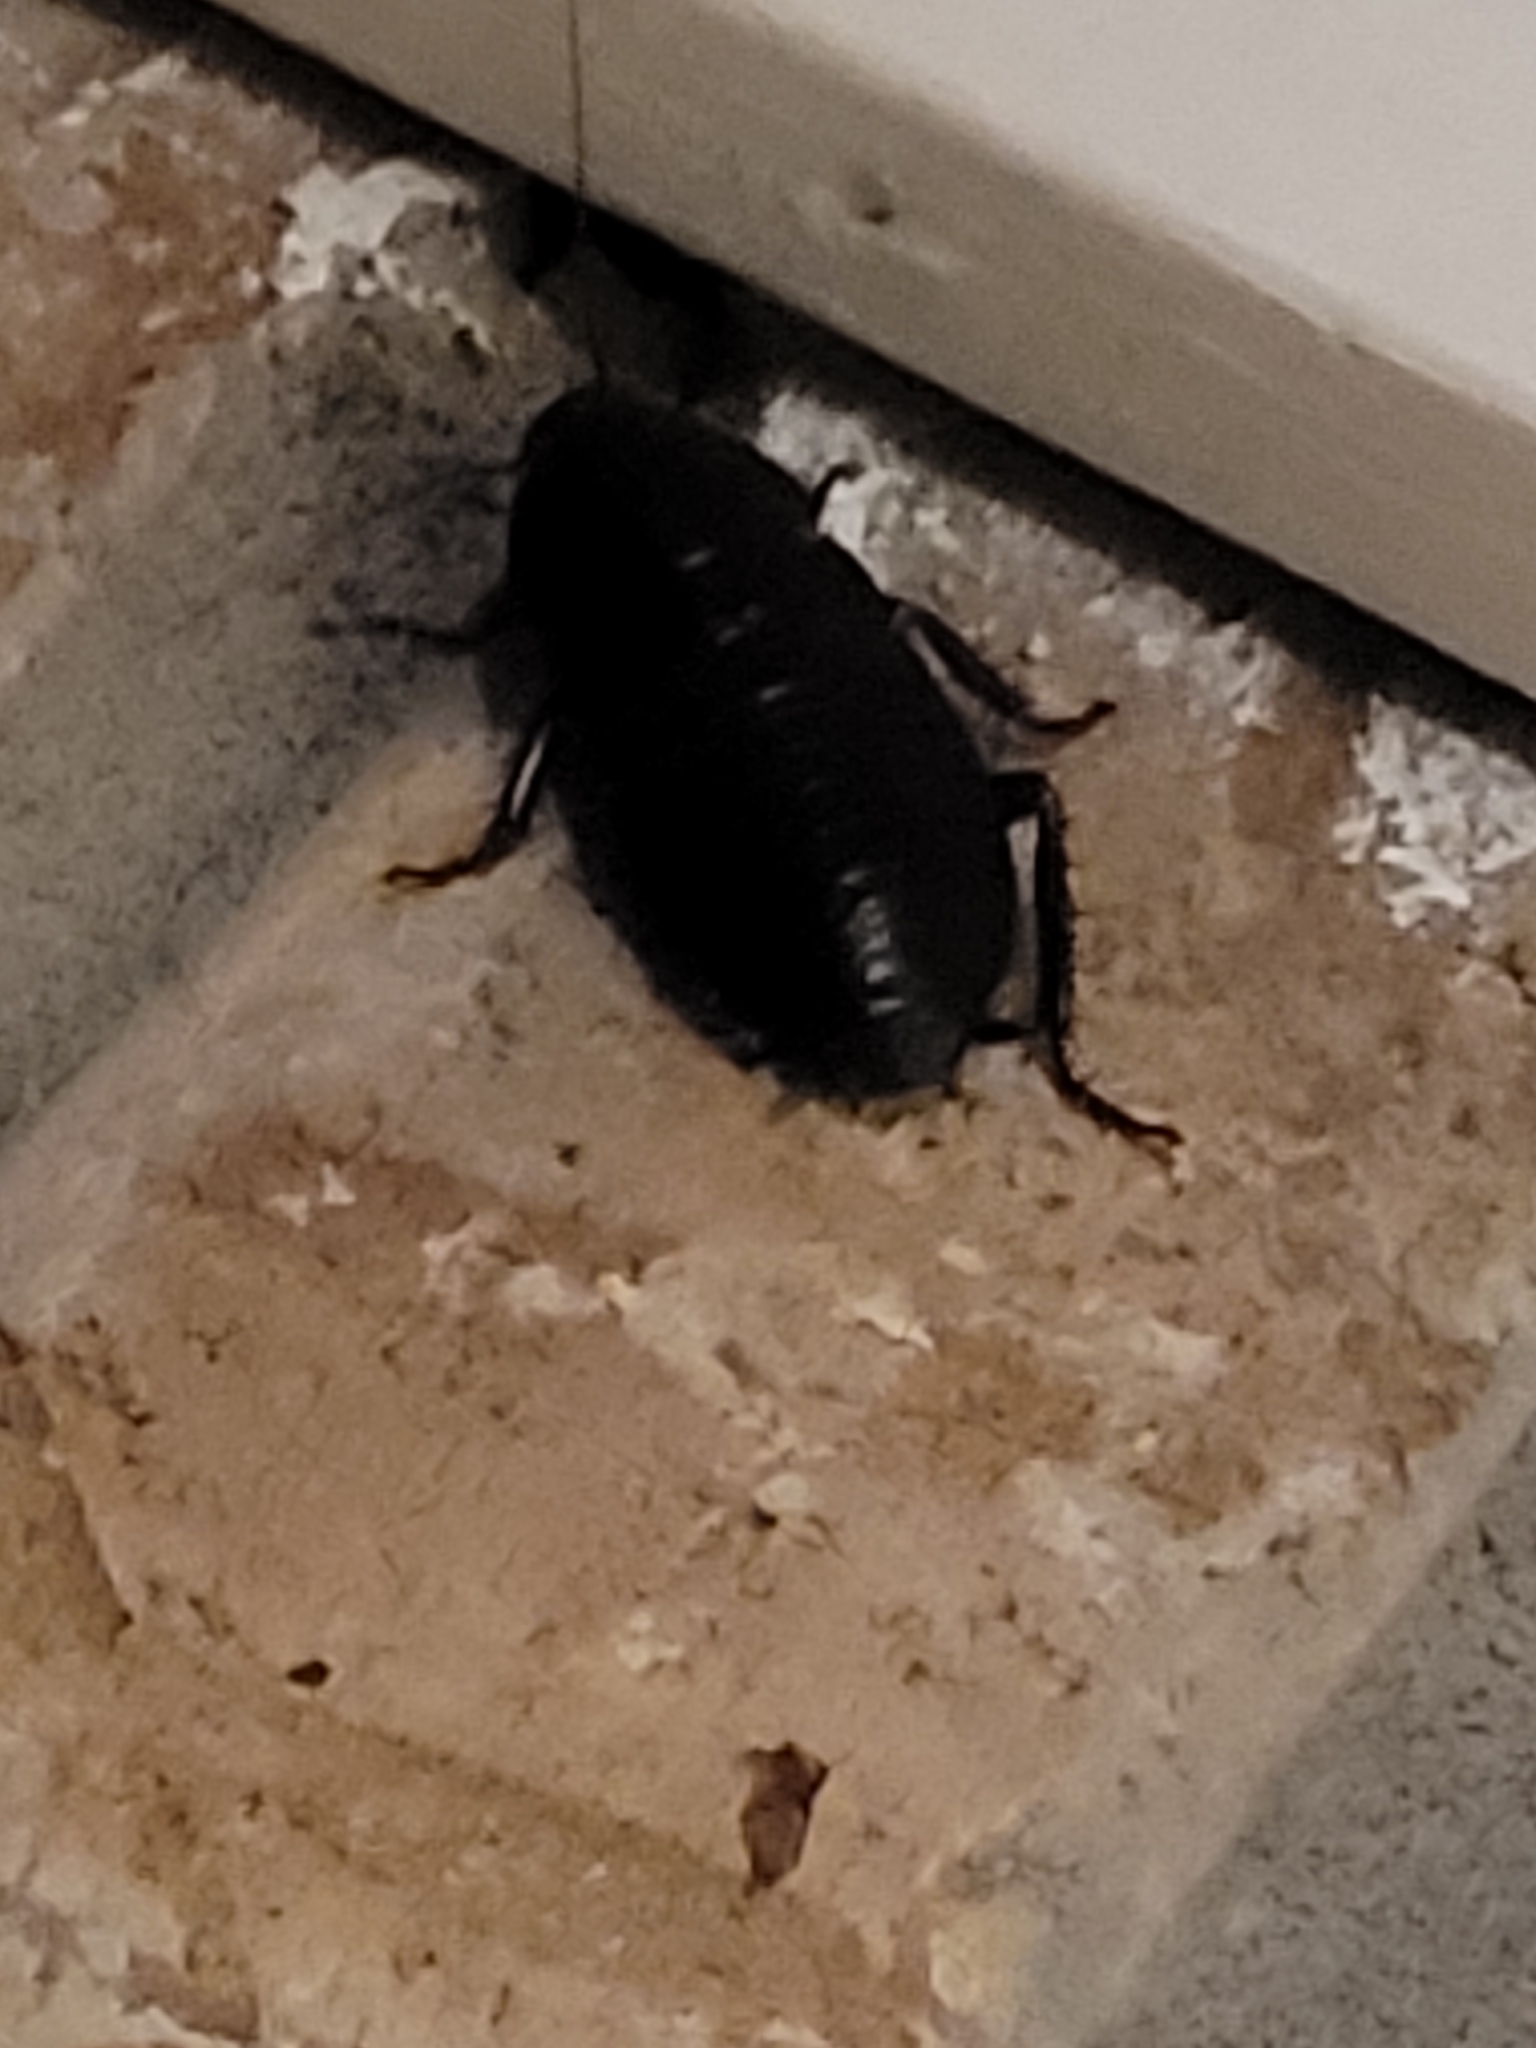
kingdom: Animalia
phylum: Arthropoda
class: Insecta
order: Blattodea
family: Blattidae
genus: Eurycotis
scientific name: Eurycotis floridana
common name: Florida cockroach
